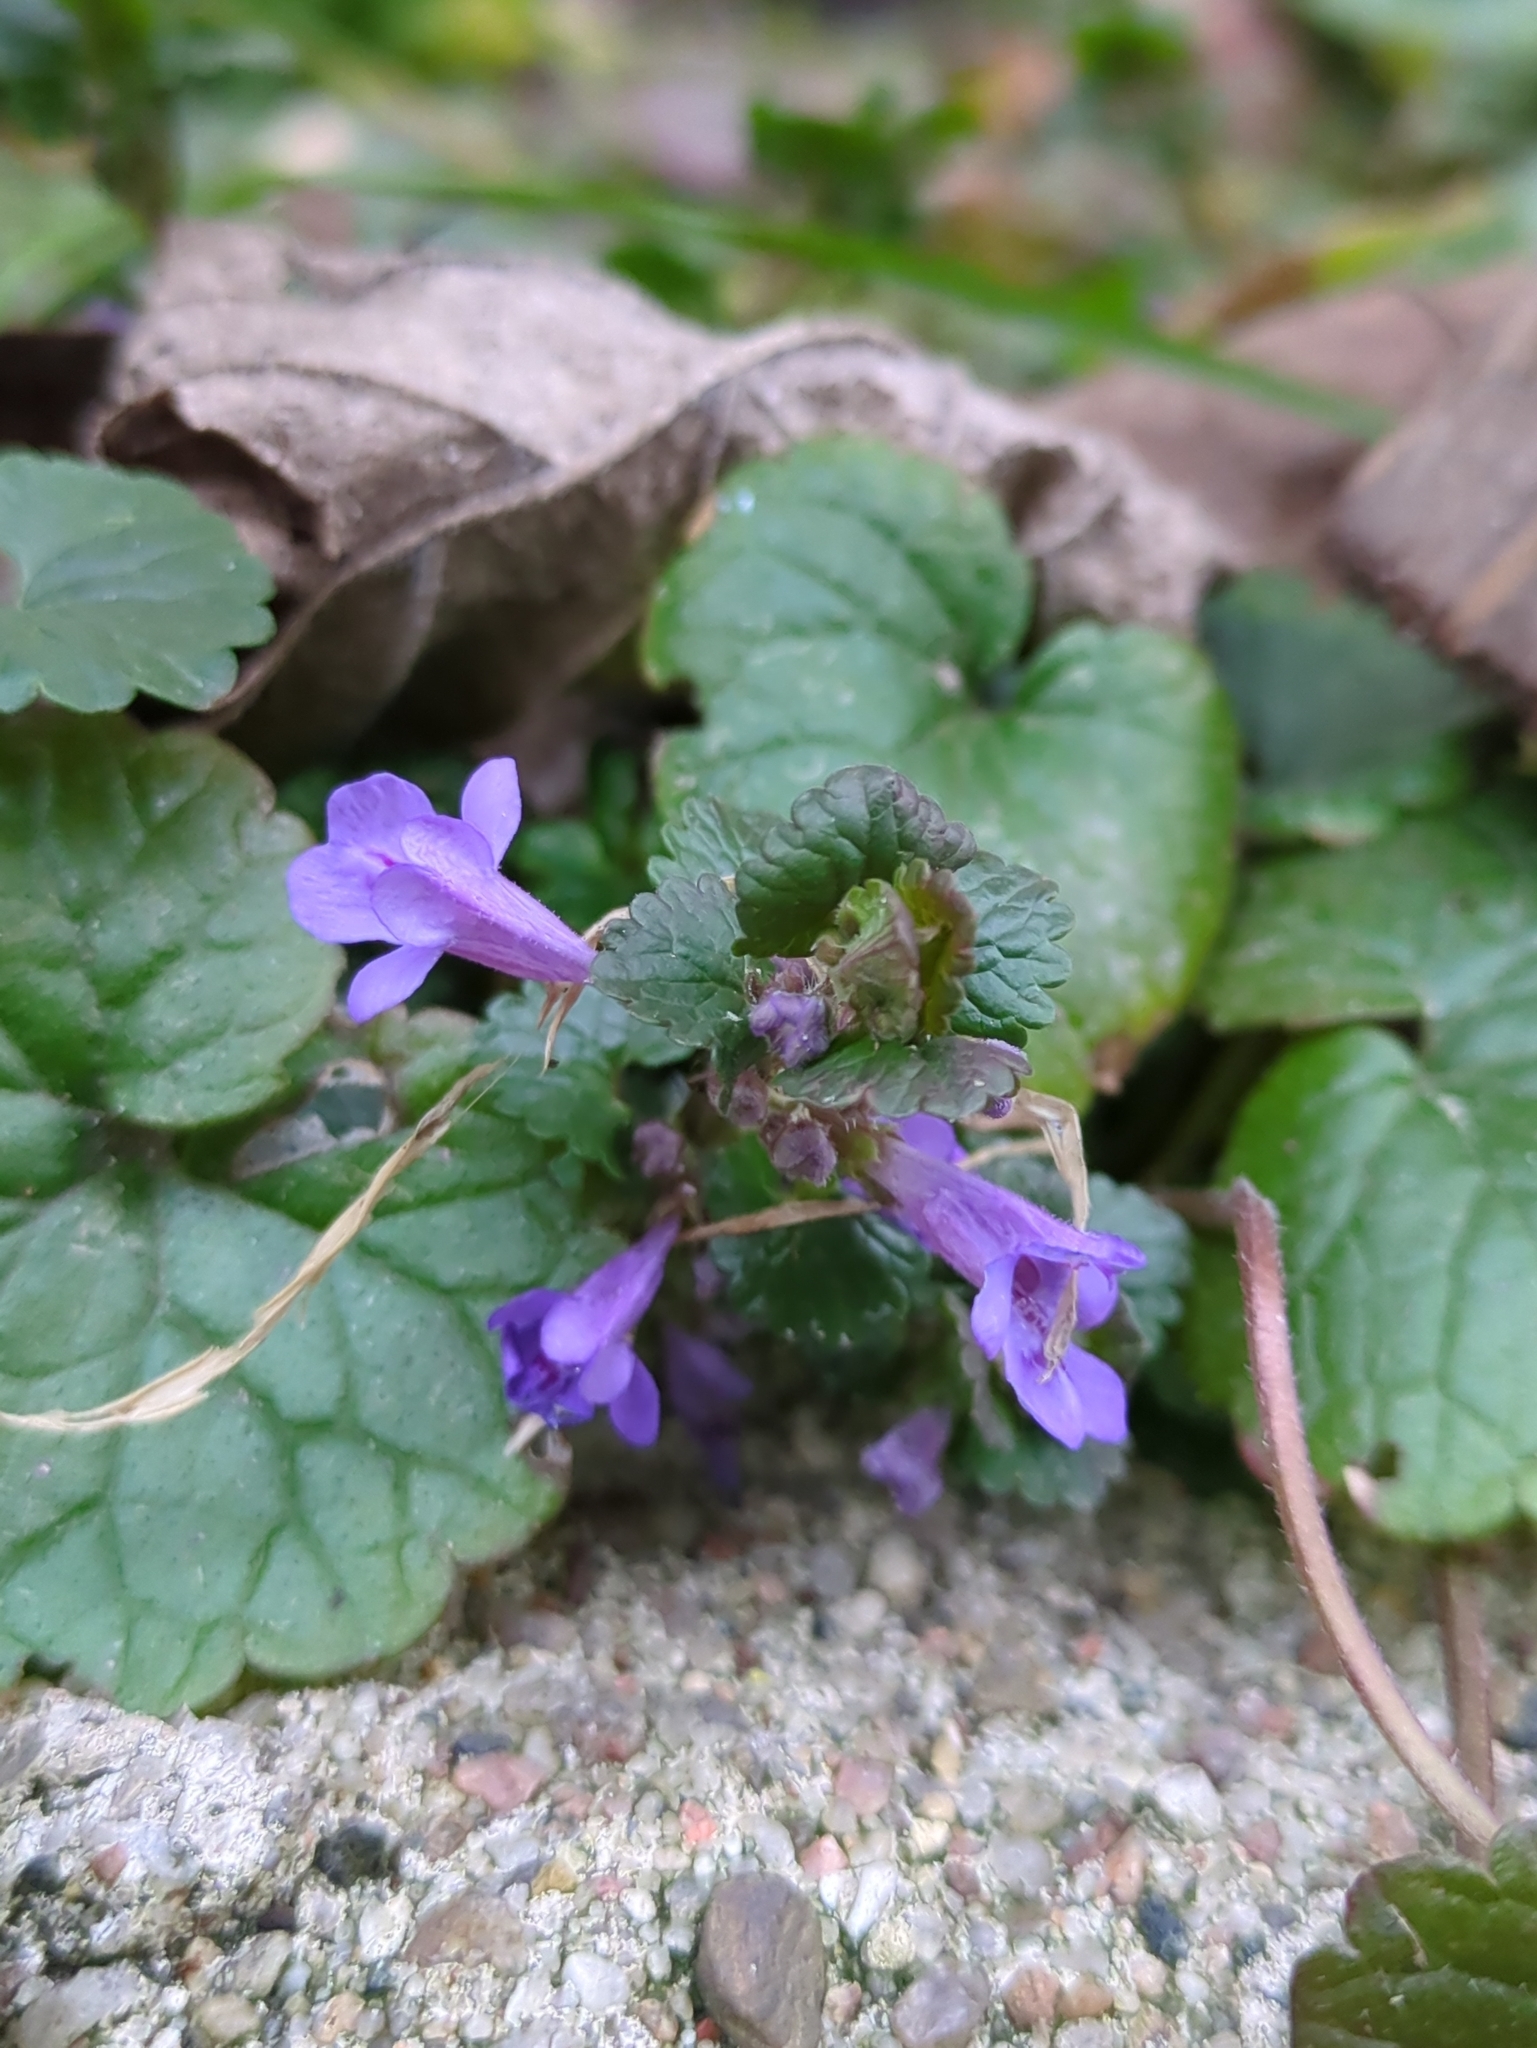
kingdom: Plantae
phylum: Tracheophyta
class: Magnoliopsida
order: Lamiales
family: Lamiaceae
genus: Glechoma
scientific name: Glechoma hederacea
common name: Ground ivy
